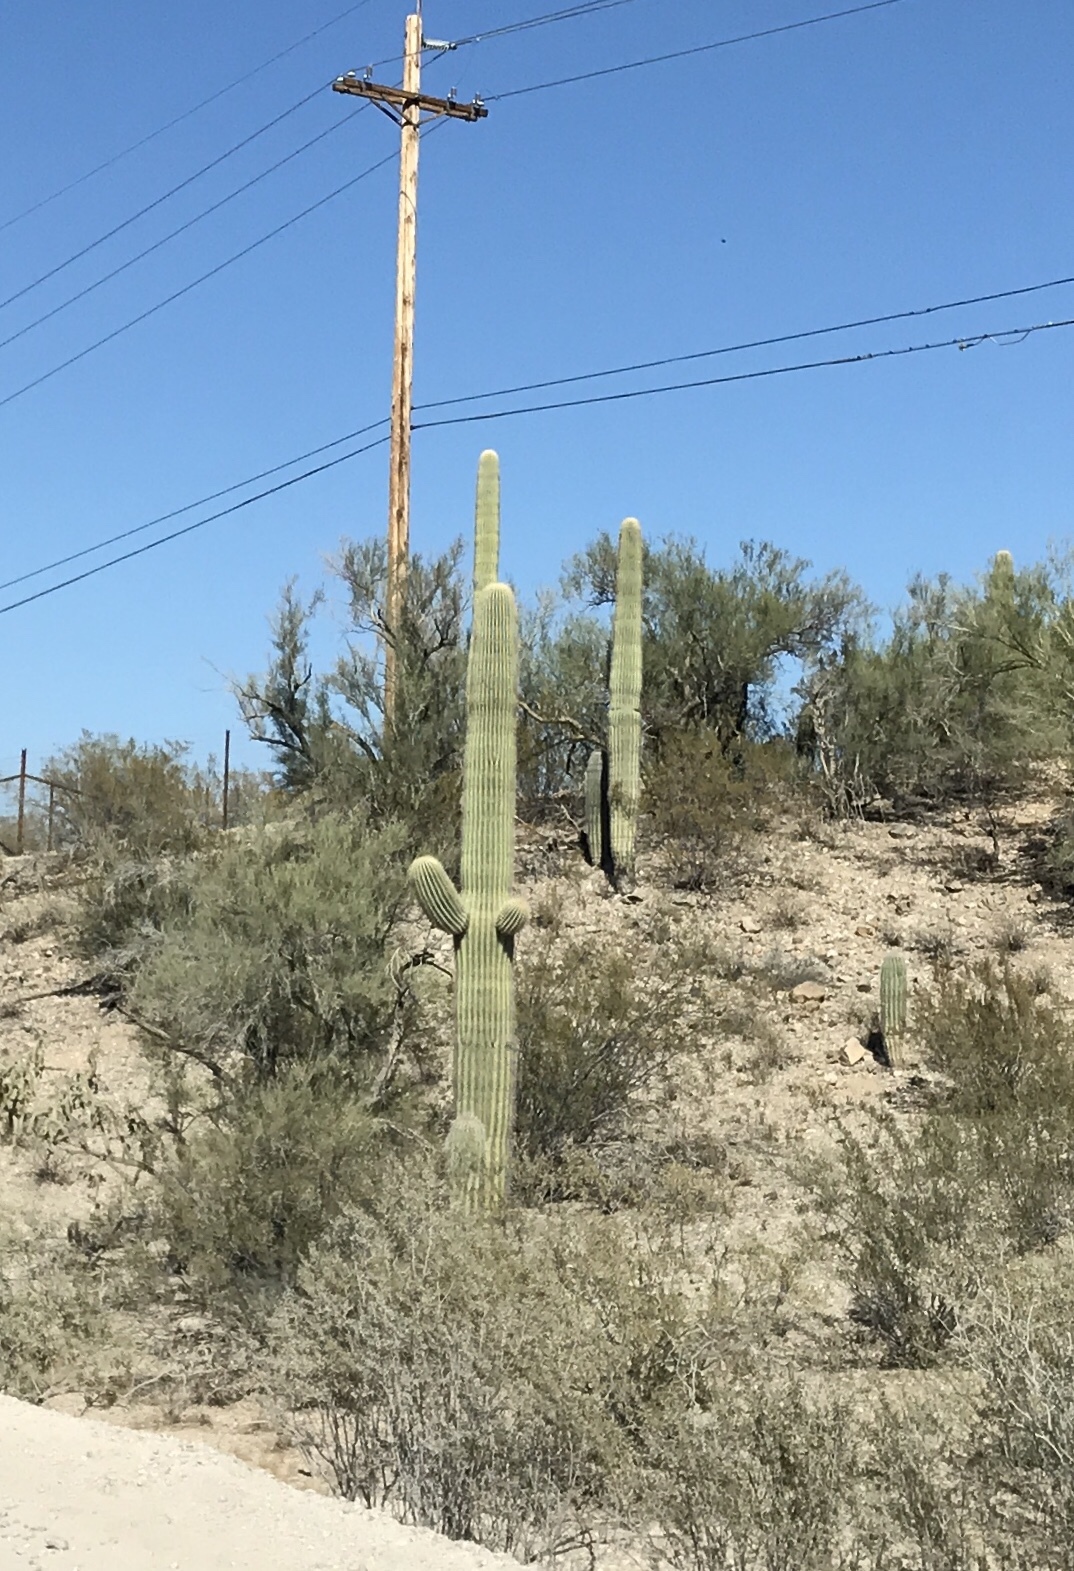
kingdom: Plantae
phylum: Tracheophyta
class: Magnoliopsida
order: Caryophyllales
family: Cactaceae
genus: Carnegiea
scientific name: Carnegiea gigantea
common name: Saguaro
